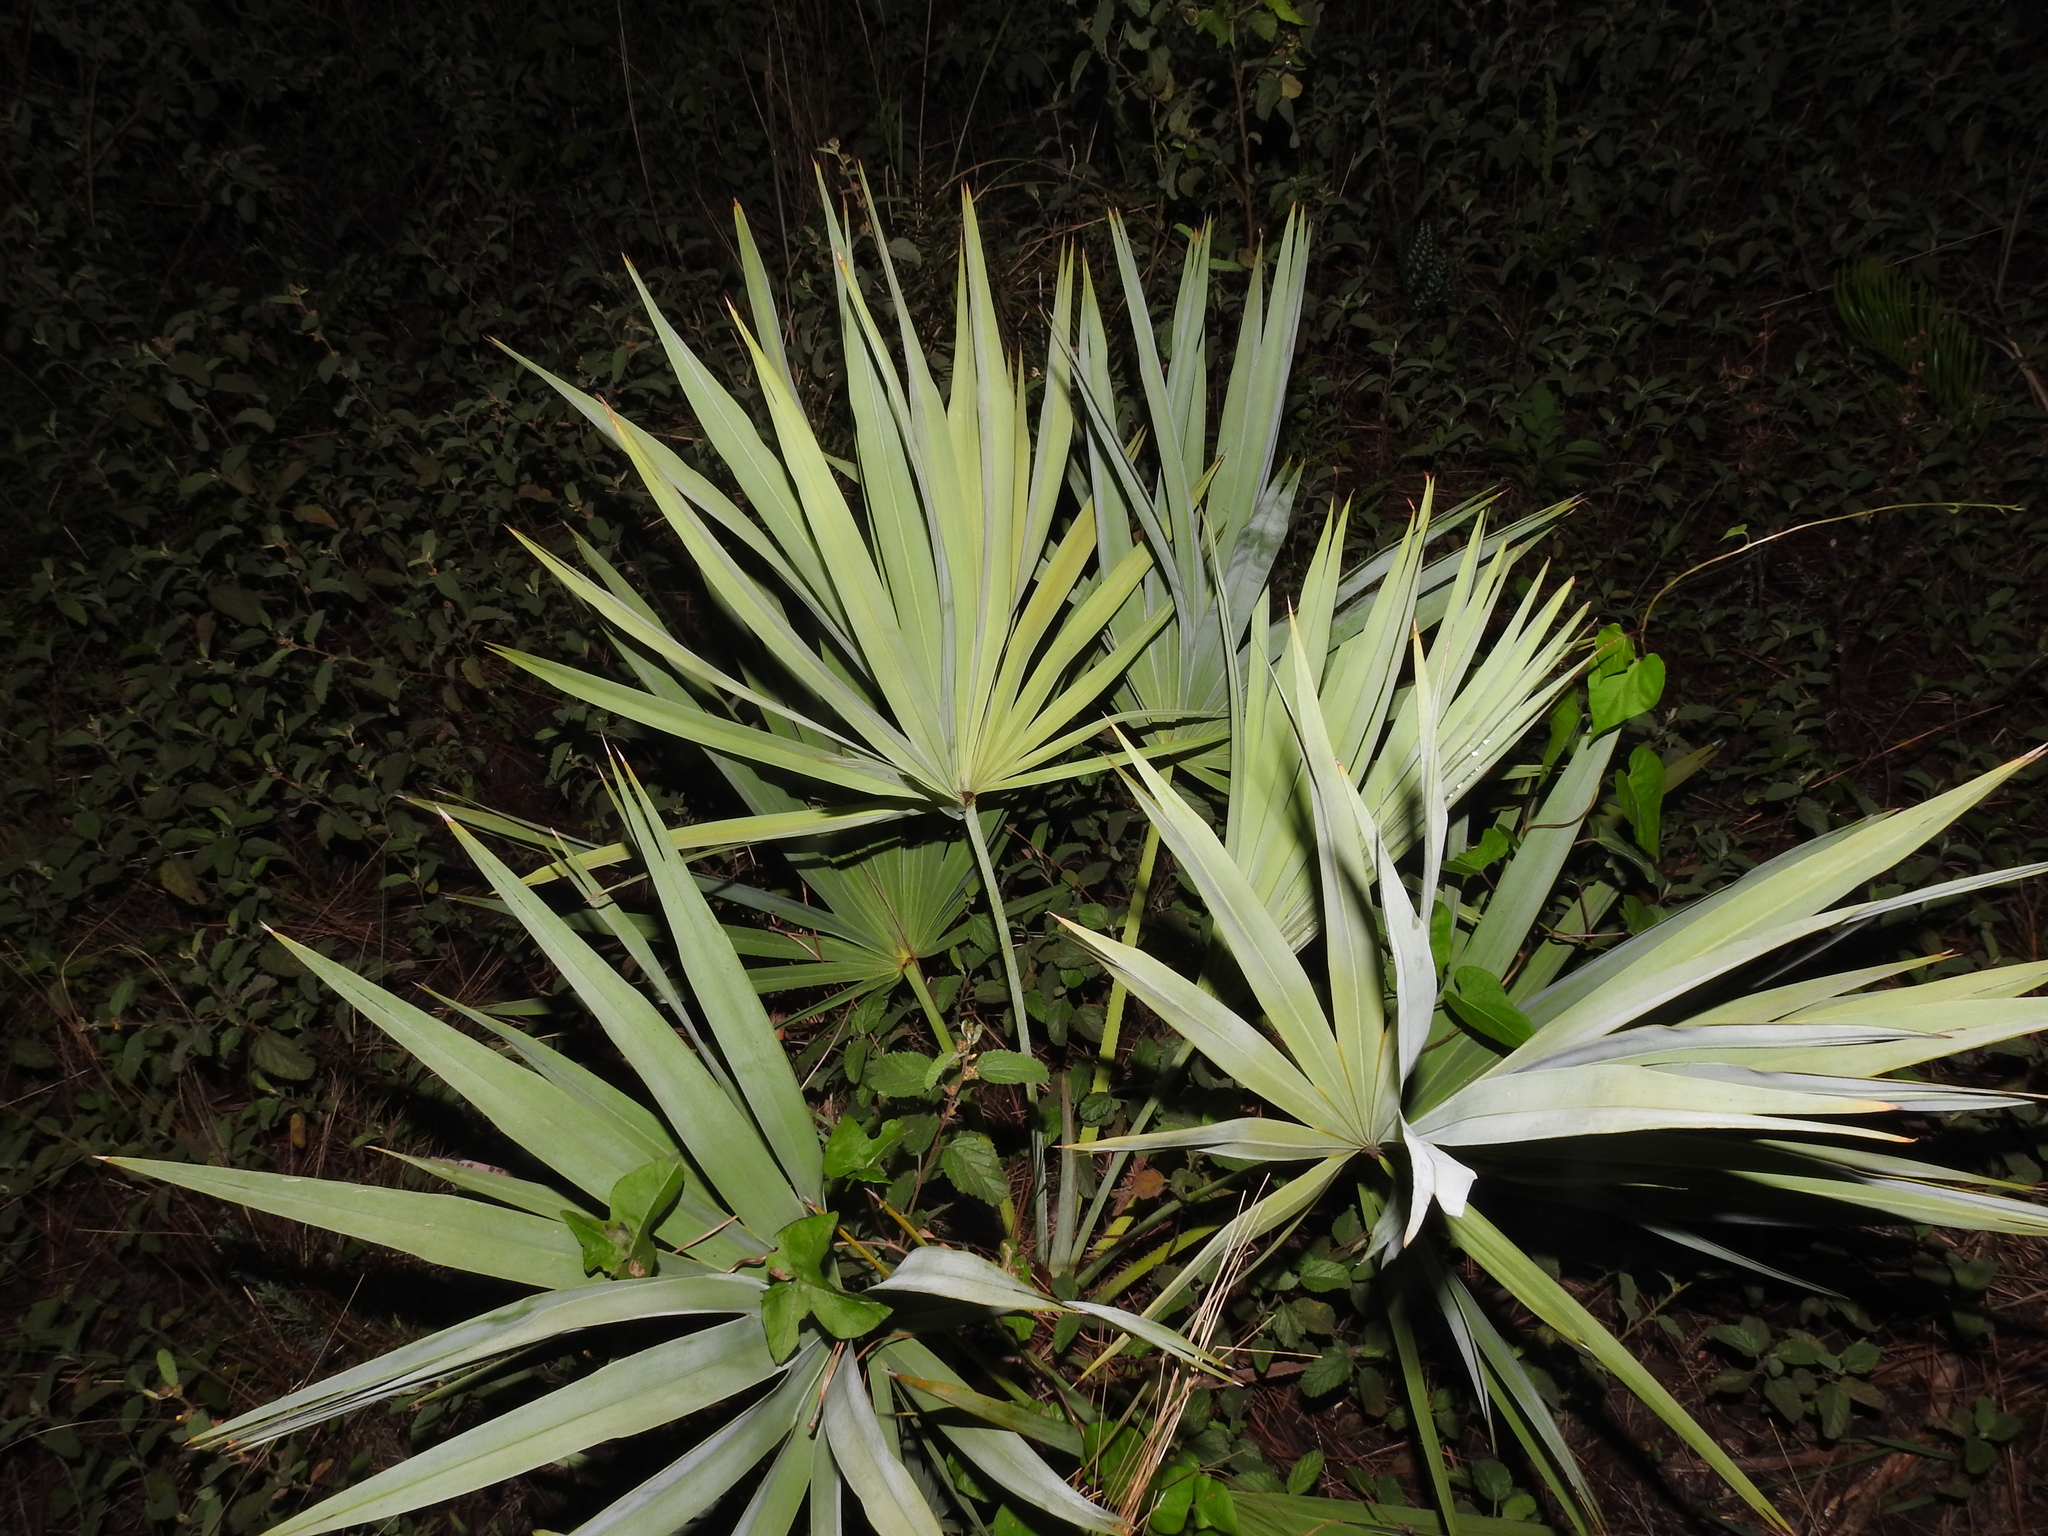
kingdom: Plantae
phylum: Tracheophyta
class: Liliopsida
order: Arecales
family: Arecaceae
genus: Serenoa
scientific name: Serenoa repens
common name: Saw-palmetto
